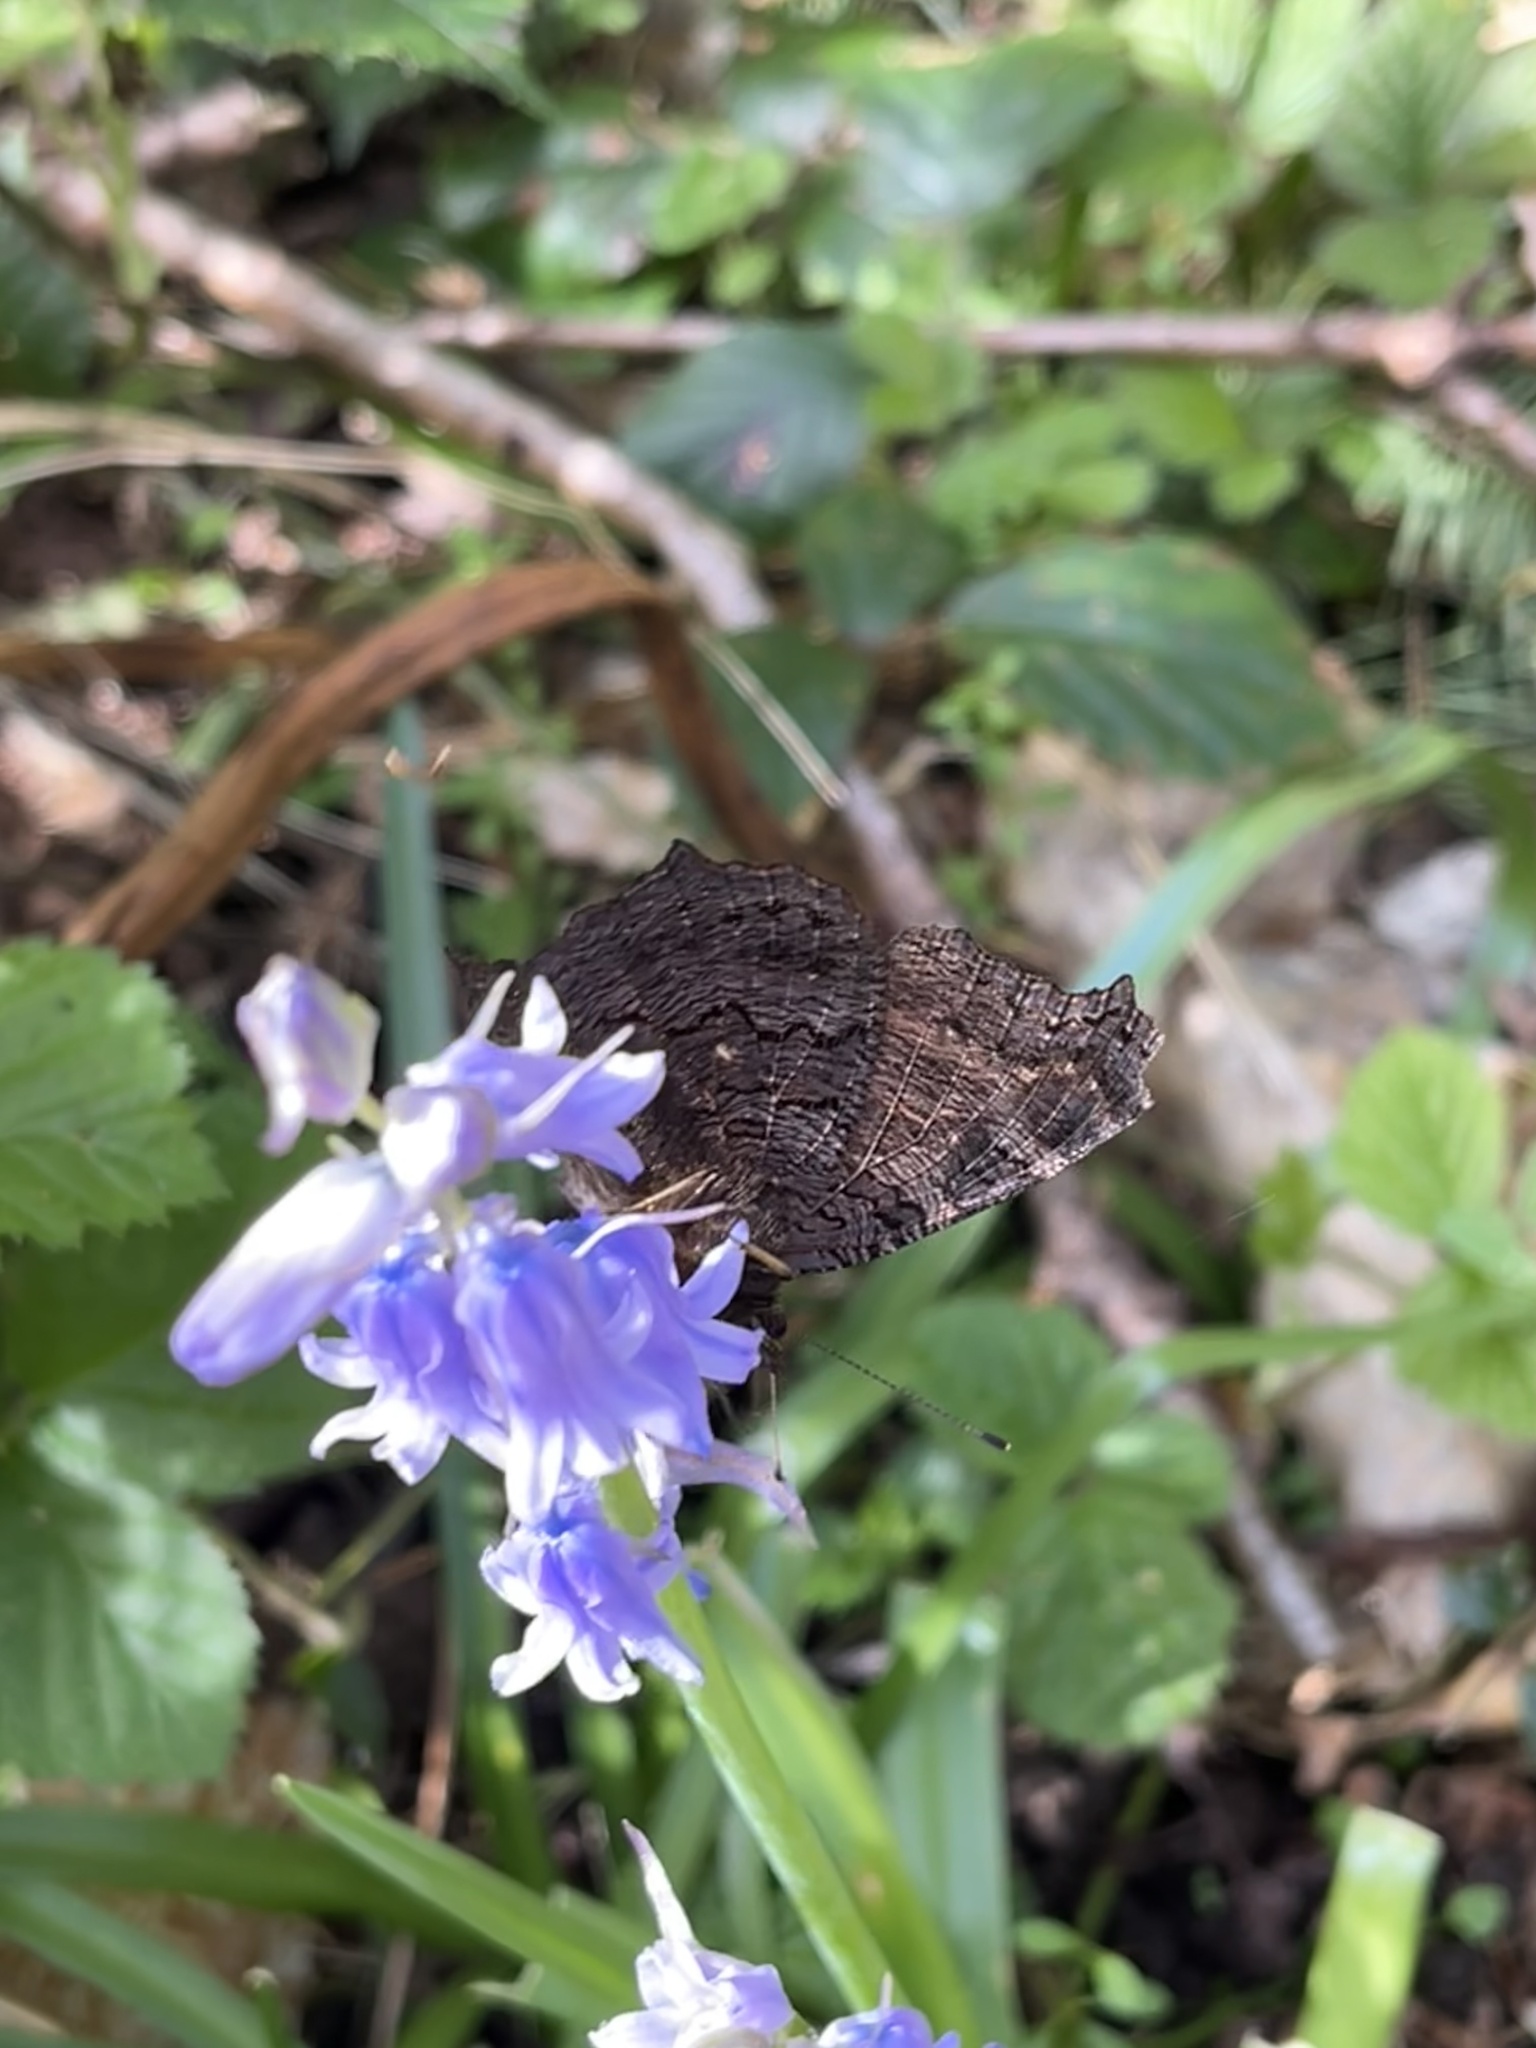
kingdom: Animalia
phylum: Arthropoda
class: Insecta
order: Lepidoptera
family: Nymphalidae
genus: Aglais
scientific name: Aglais io
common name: Peacock
